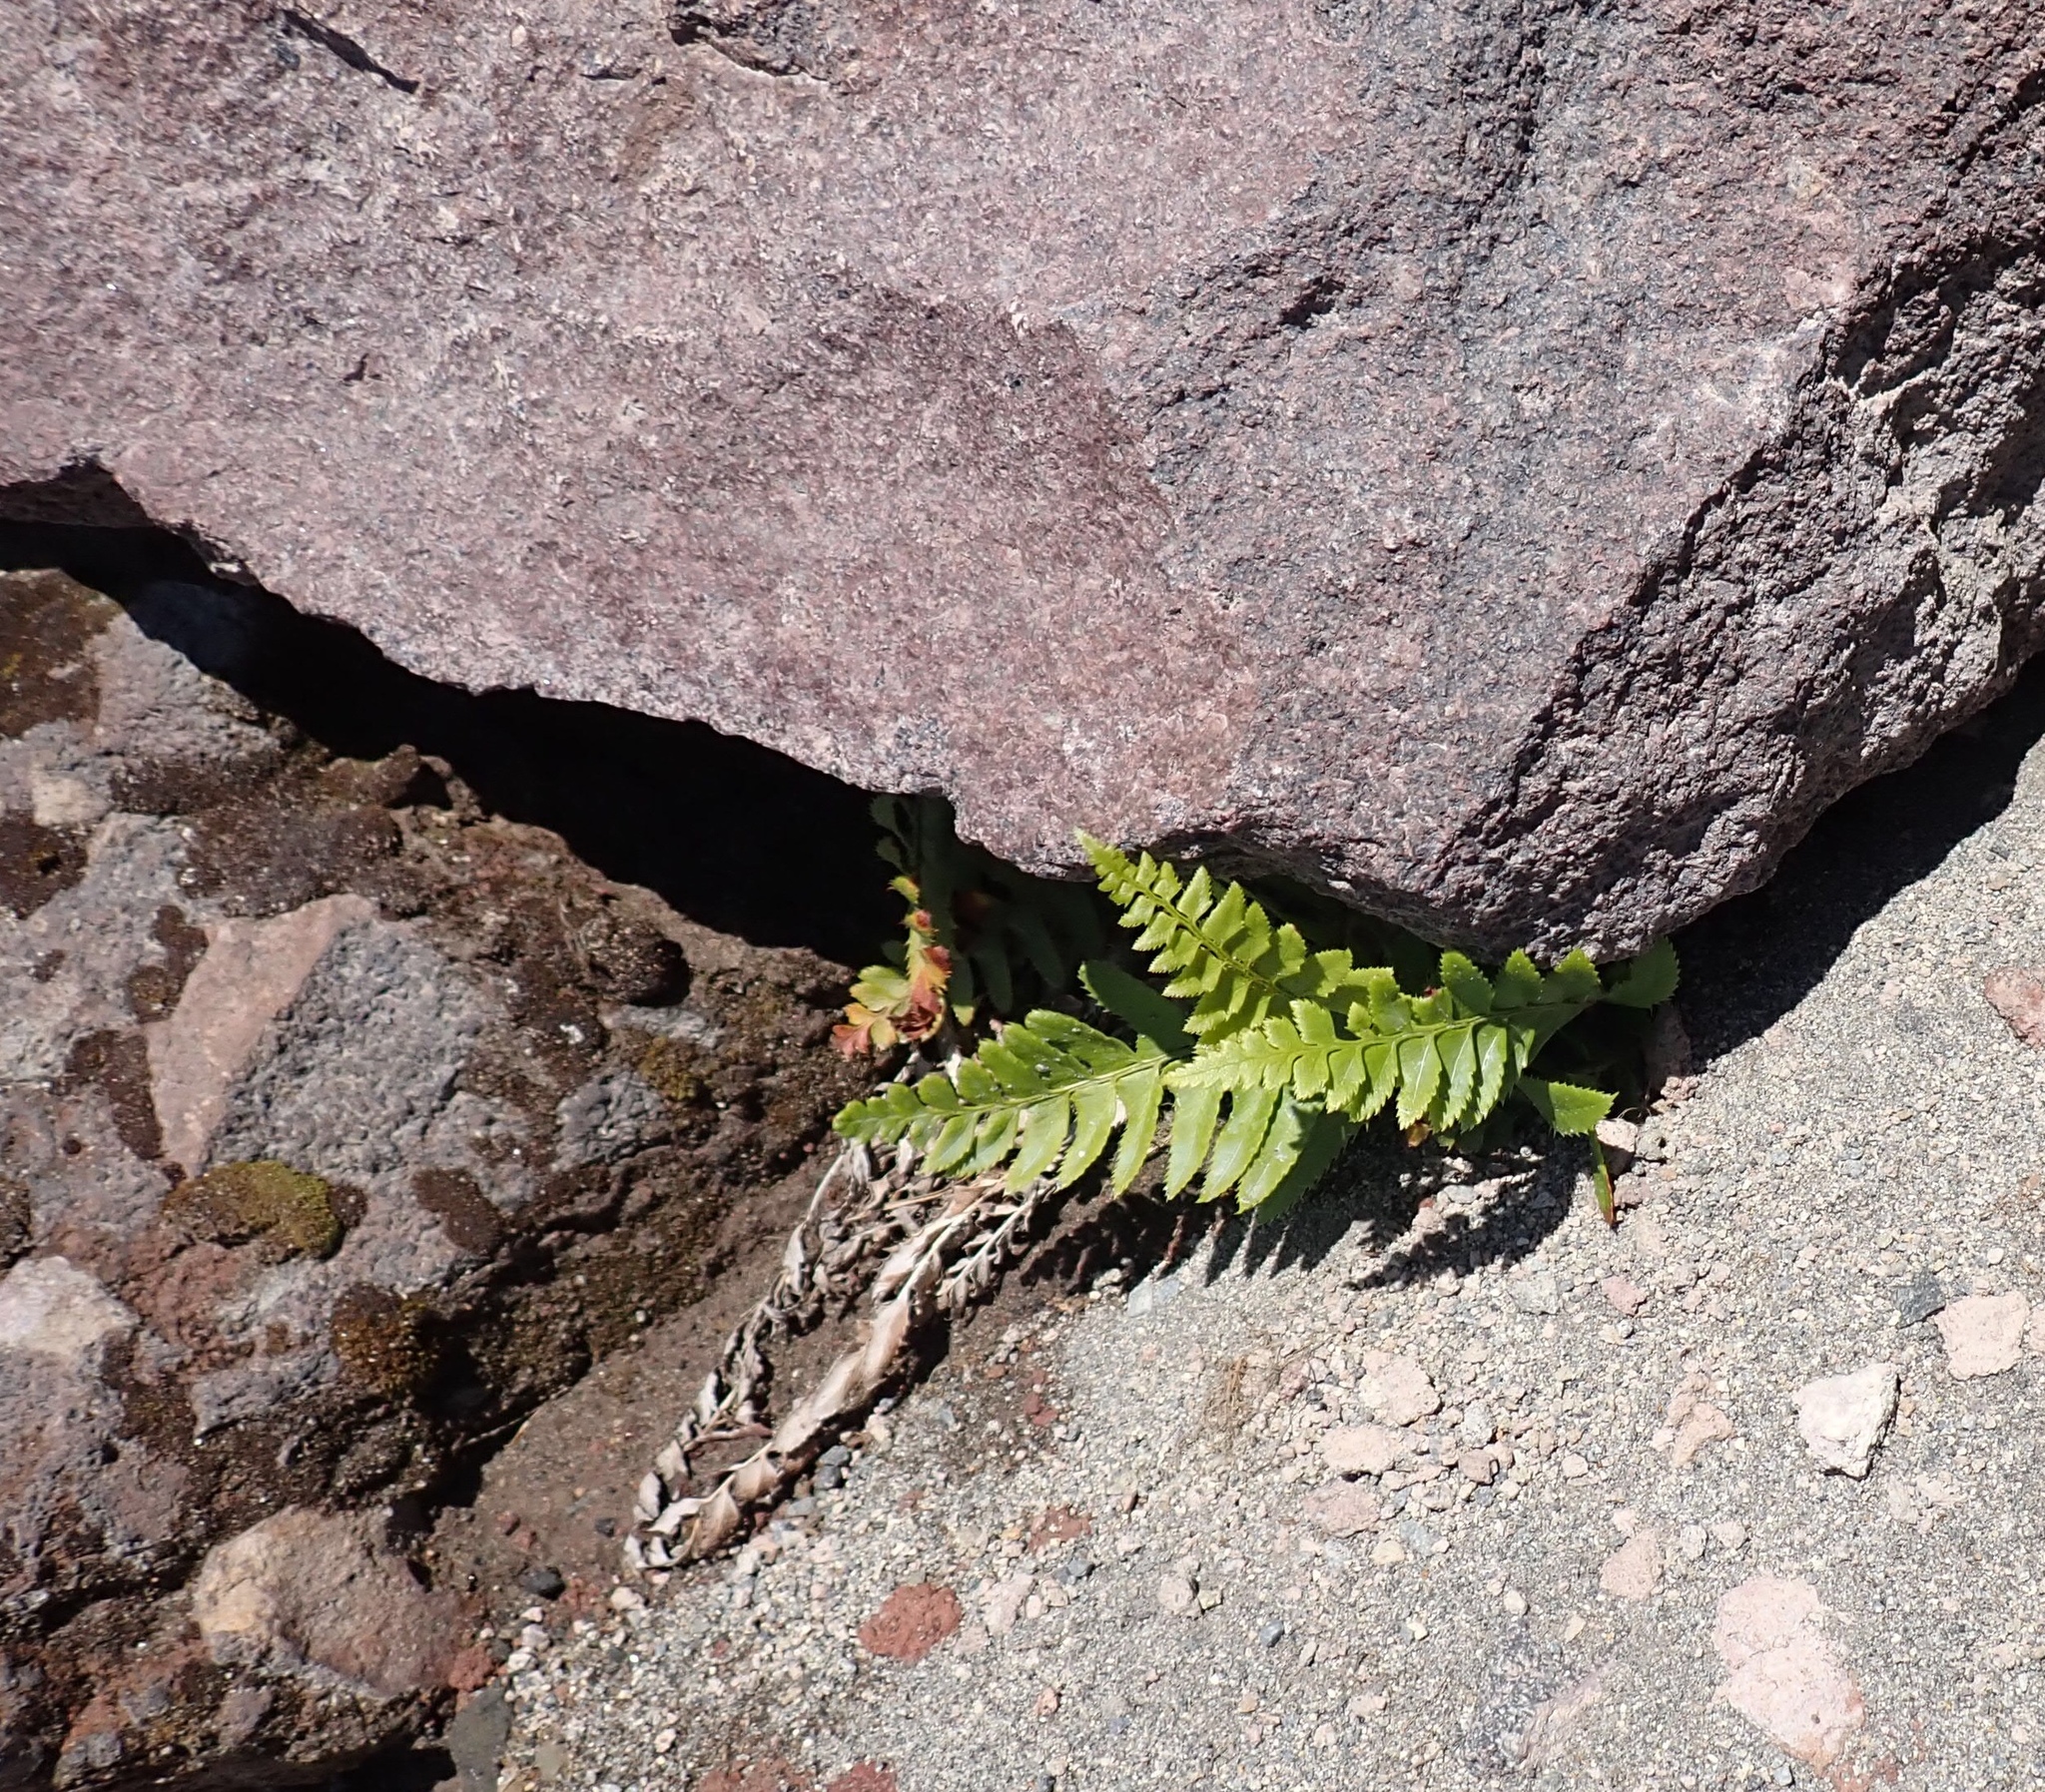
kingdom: Plantae
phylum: Tracheophyta
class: Polypodiopsida
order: Polypodiales
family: Dryopteridaceae
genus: Polystichum
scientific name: Polystichum munitum
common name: Western sword-fern
